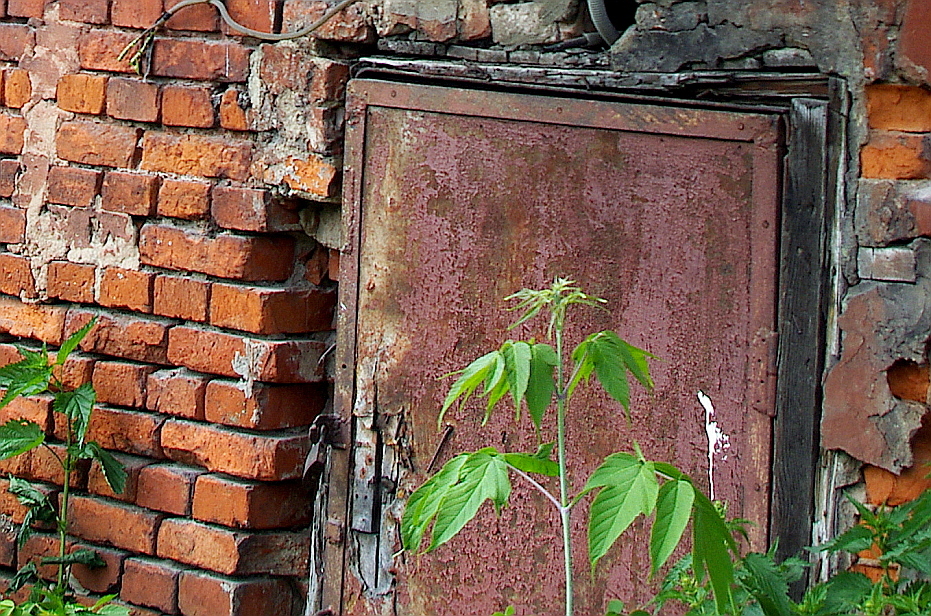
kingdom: Plantae
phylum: Tracheophyta
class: Magnoliopsida
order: Sapindales
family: Sapindaceae
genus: Acer
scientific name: Acer negundo
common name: Ashleaf maple
